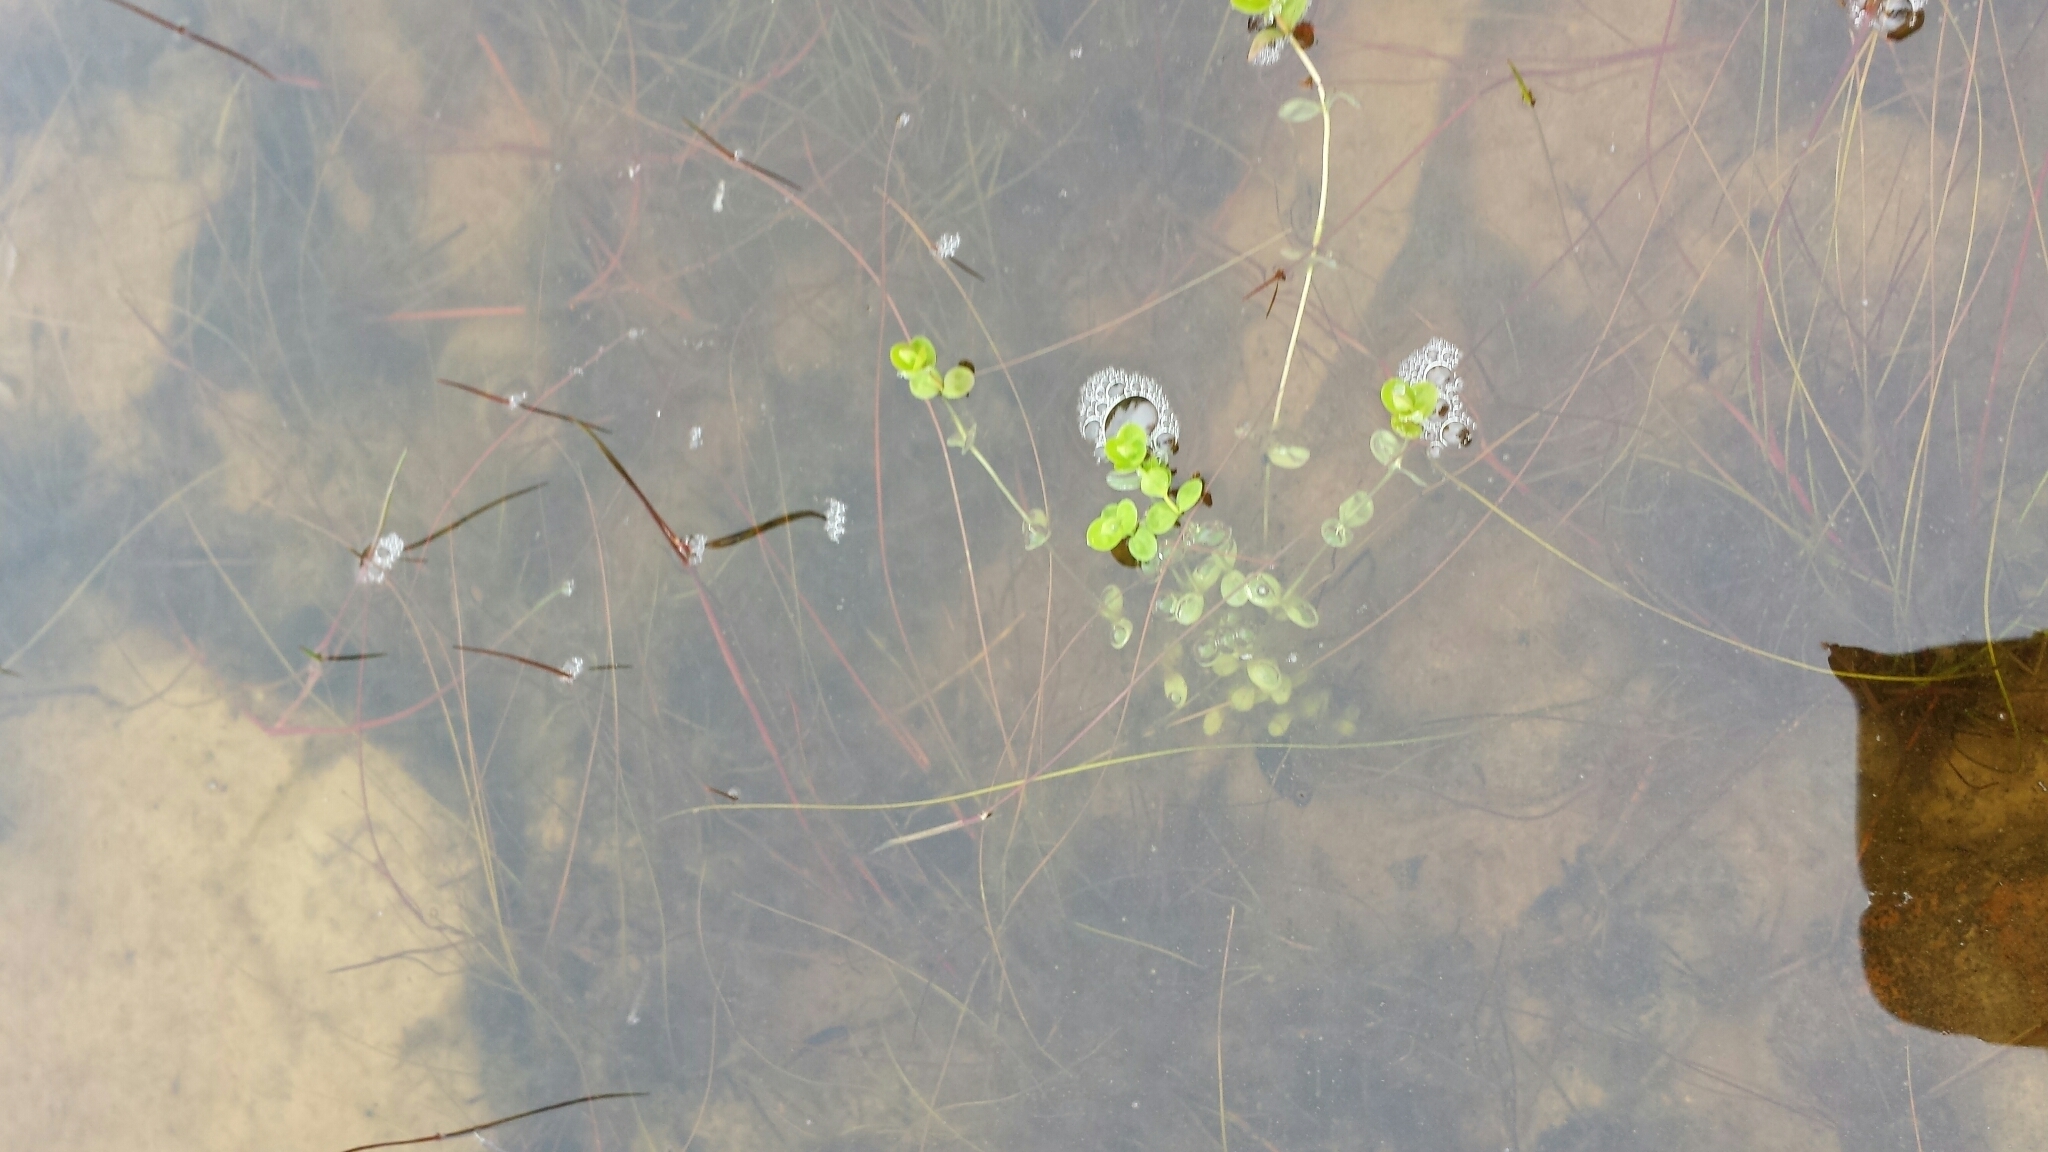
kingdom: Plantae
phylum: Tracheophyta
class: Magnoliopsida
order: Malpighiales
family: Hypericaceae
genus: Hypericum
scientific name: Hypericum boreale
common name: Northern bog st. john's-wort
